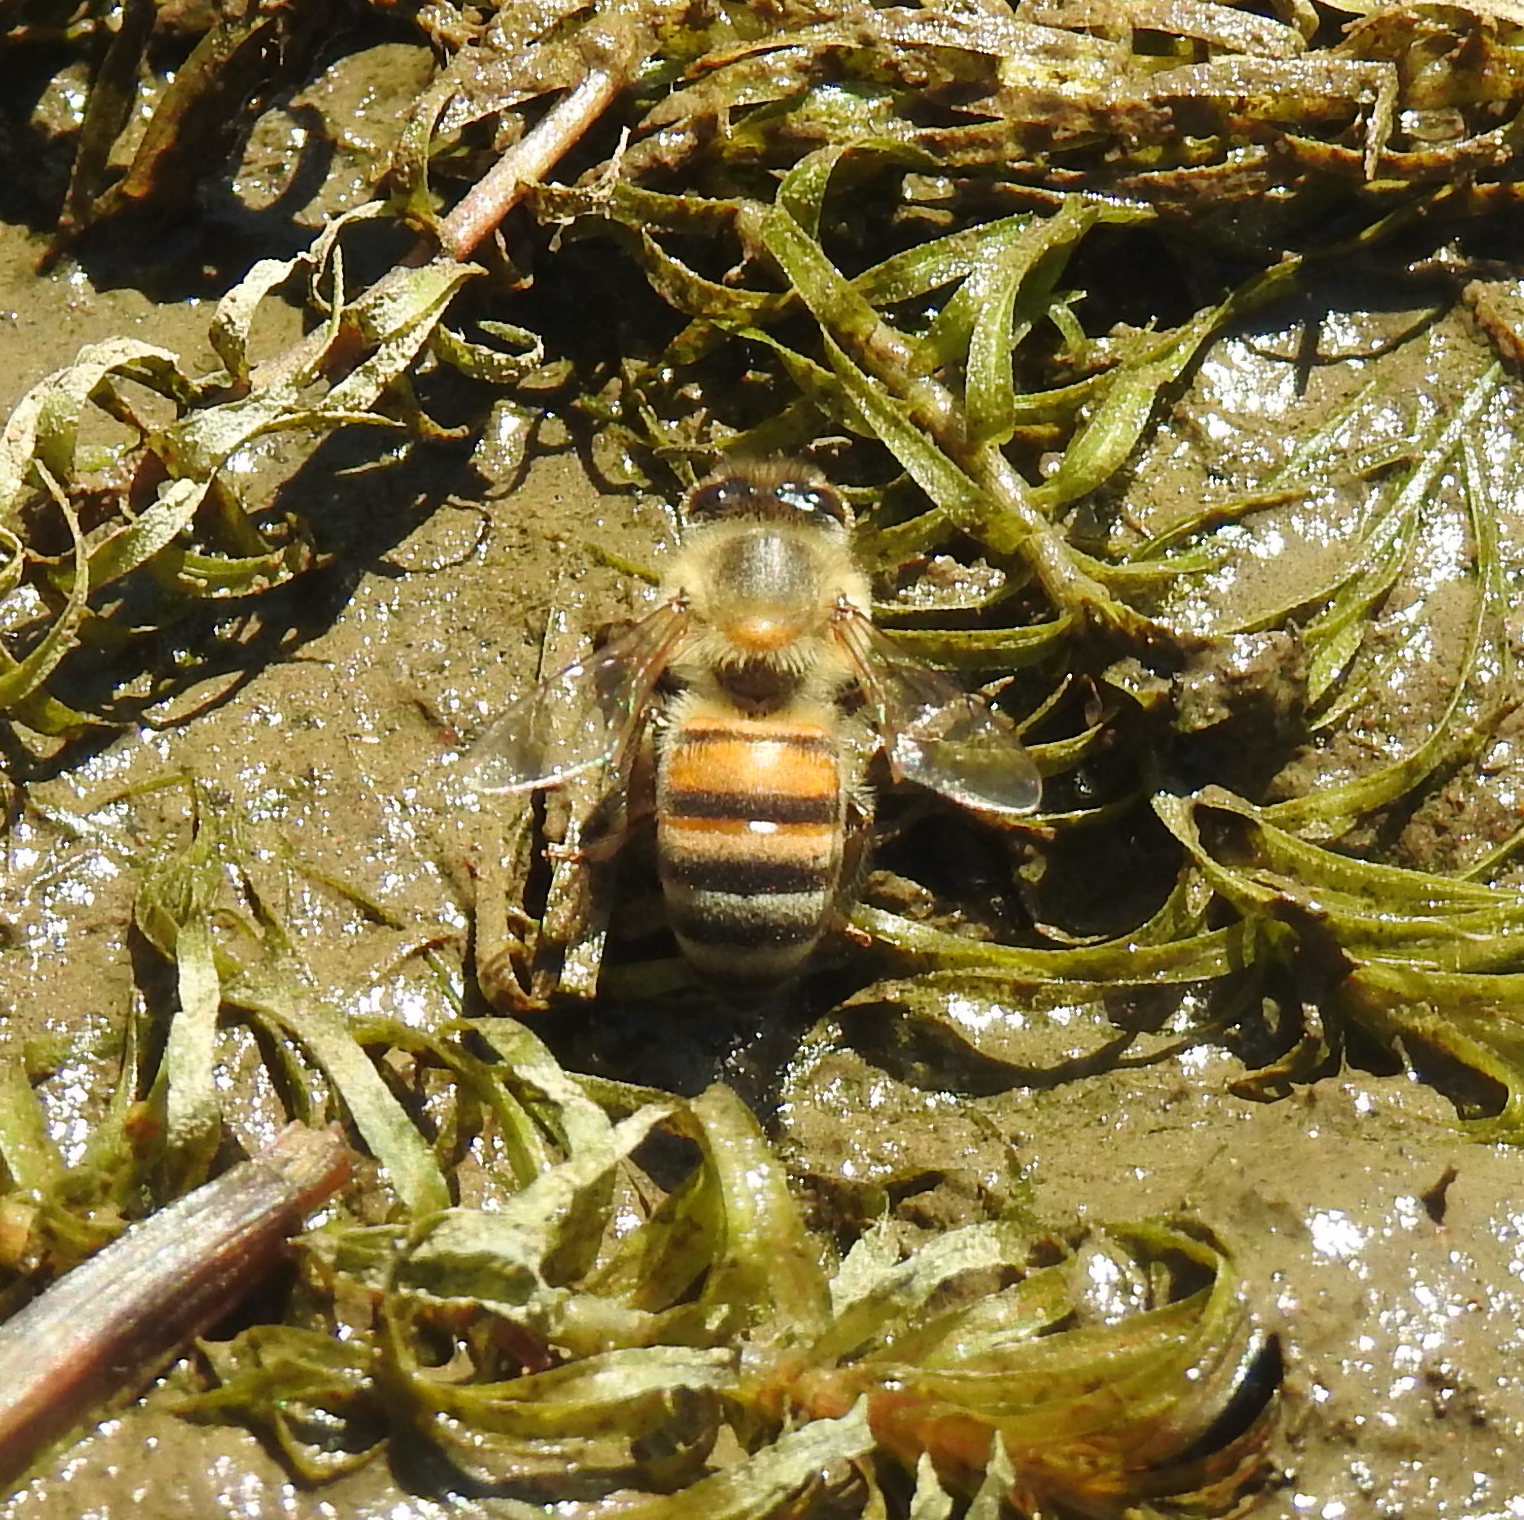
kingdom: Animalia
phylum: Arthropoda
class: Insecta
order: Hymenoptera
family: Apidae
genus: Apis
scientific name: Apis mellifera
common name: Honey bee
